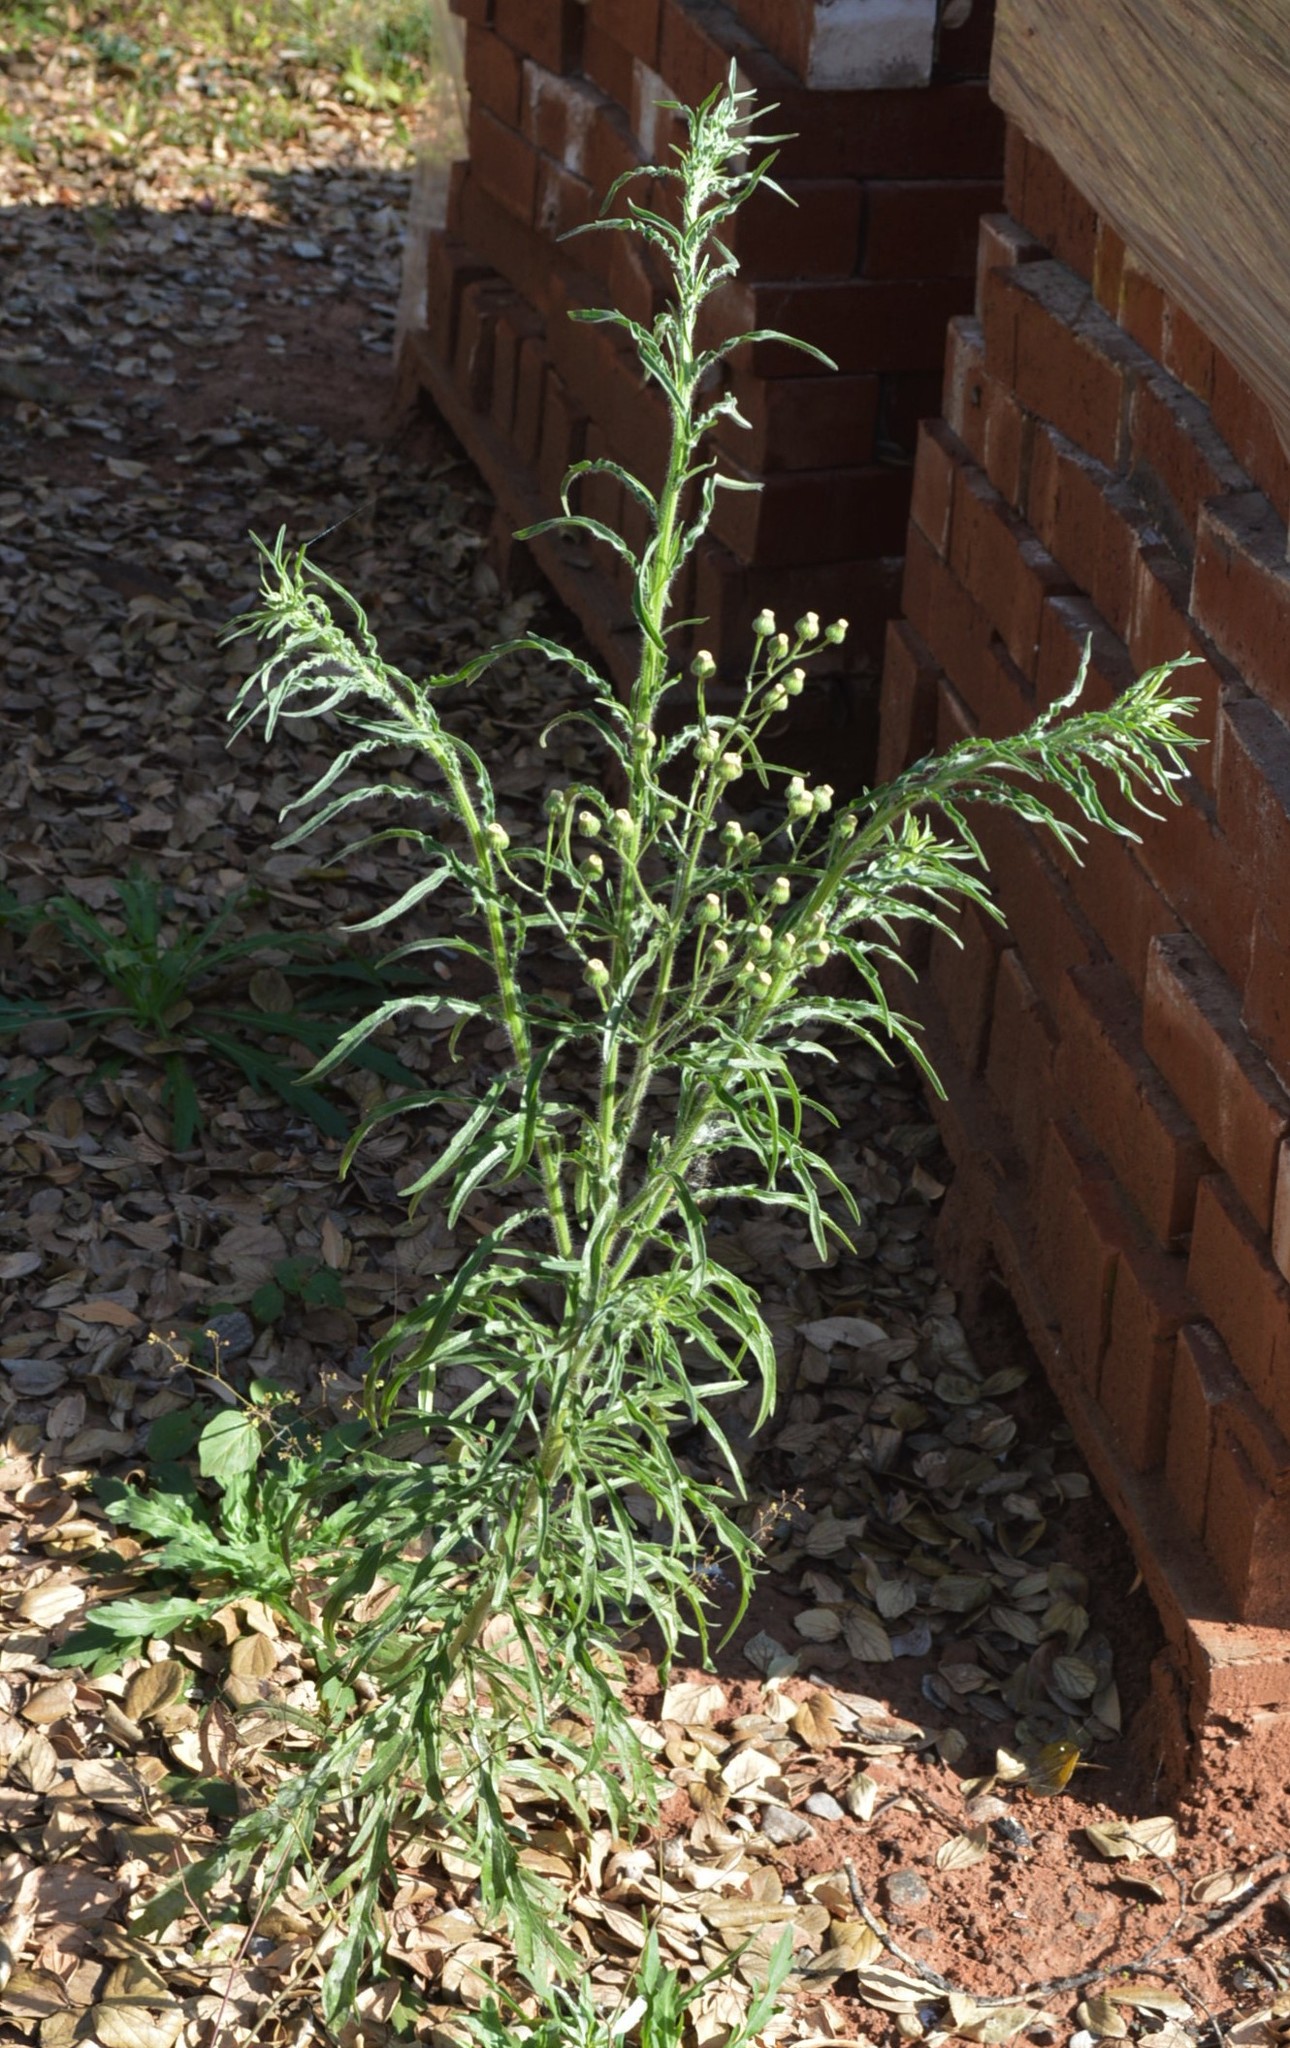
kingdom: Plantae
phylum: Tracheophyta
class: Magnoliopsida
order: Asterales
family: Asteraceae
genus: Erigeron
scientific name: Erigeron bonariensis
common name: Argentine fleabane
